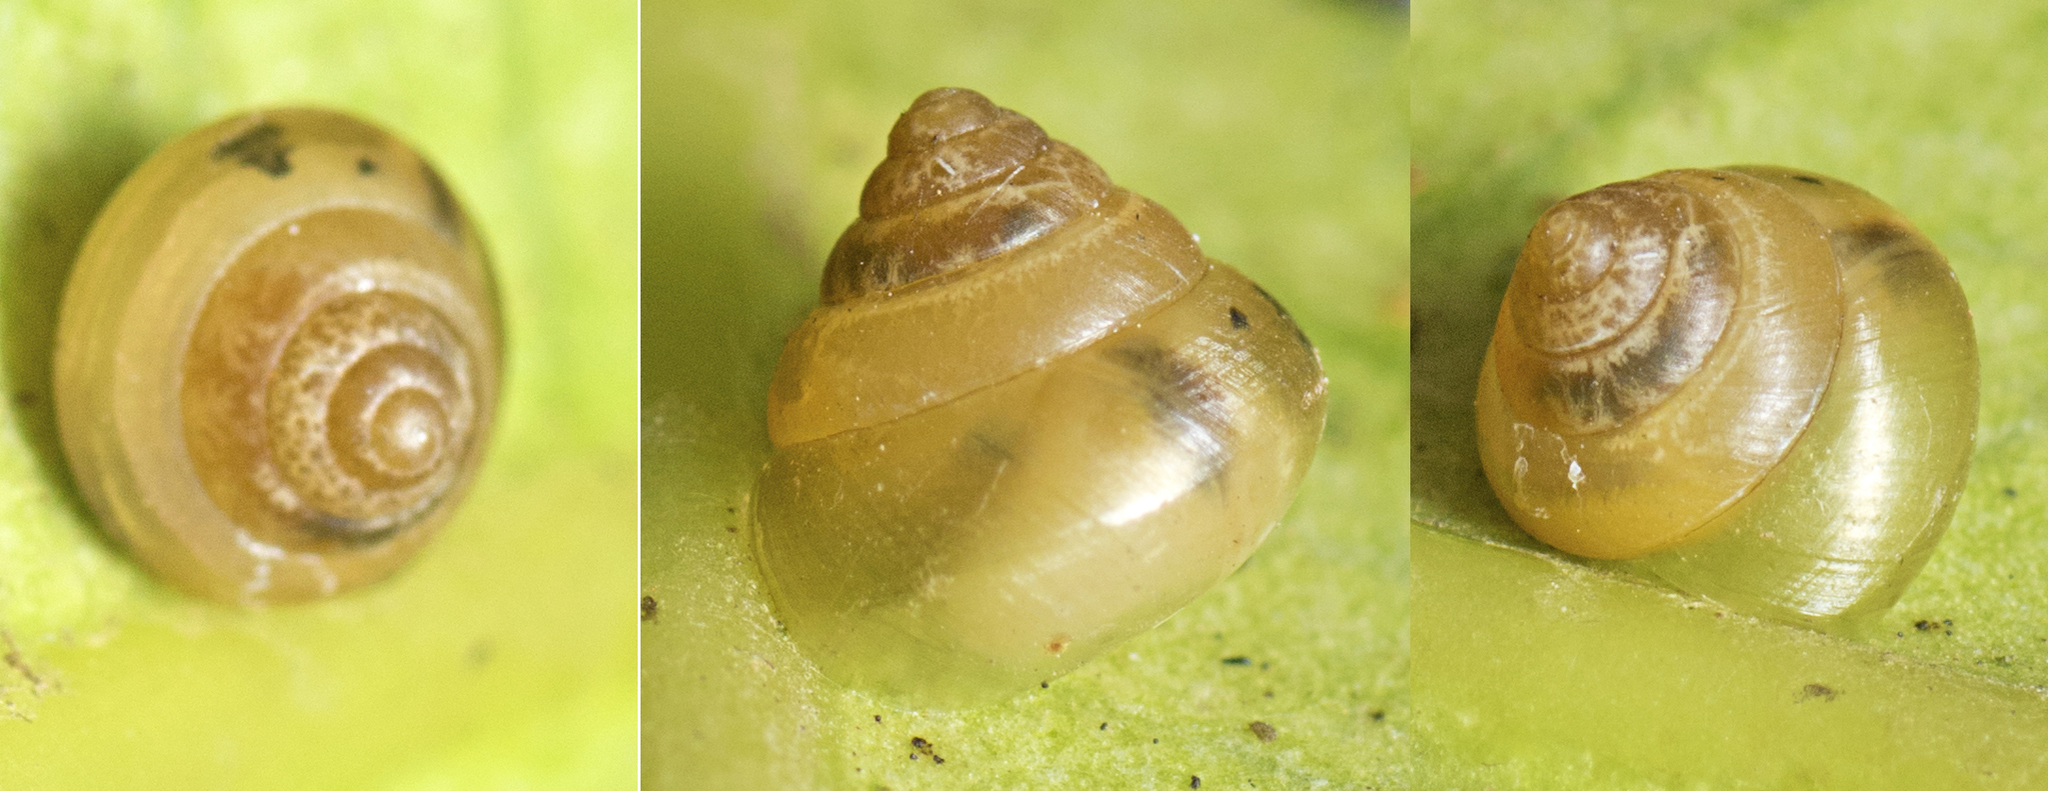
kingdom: Animalia
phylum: Mollusca
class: Gastropoda
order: Stylommatophora
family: Euconulidae
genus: Coneuplecta
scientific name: Coneuplecta calculosa
